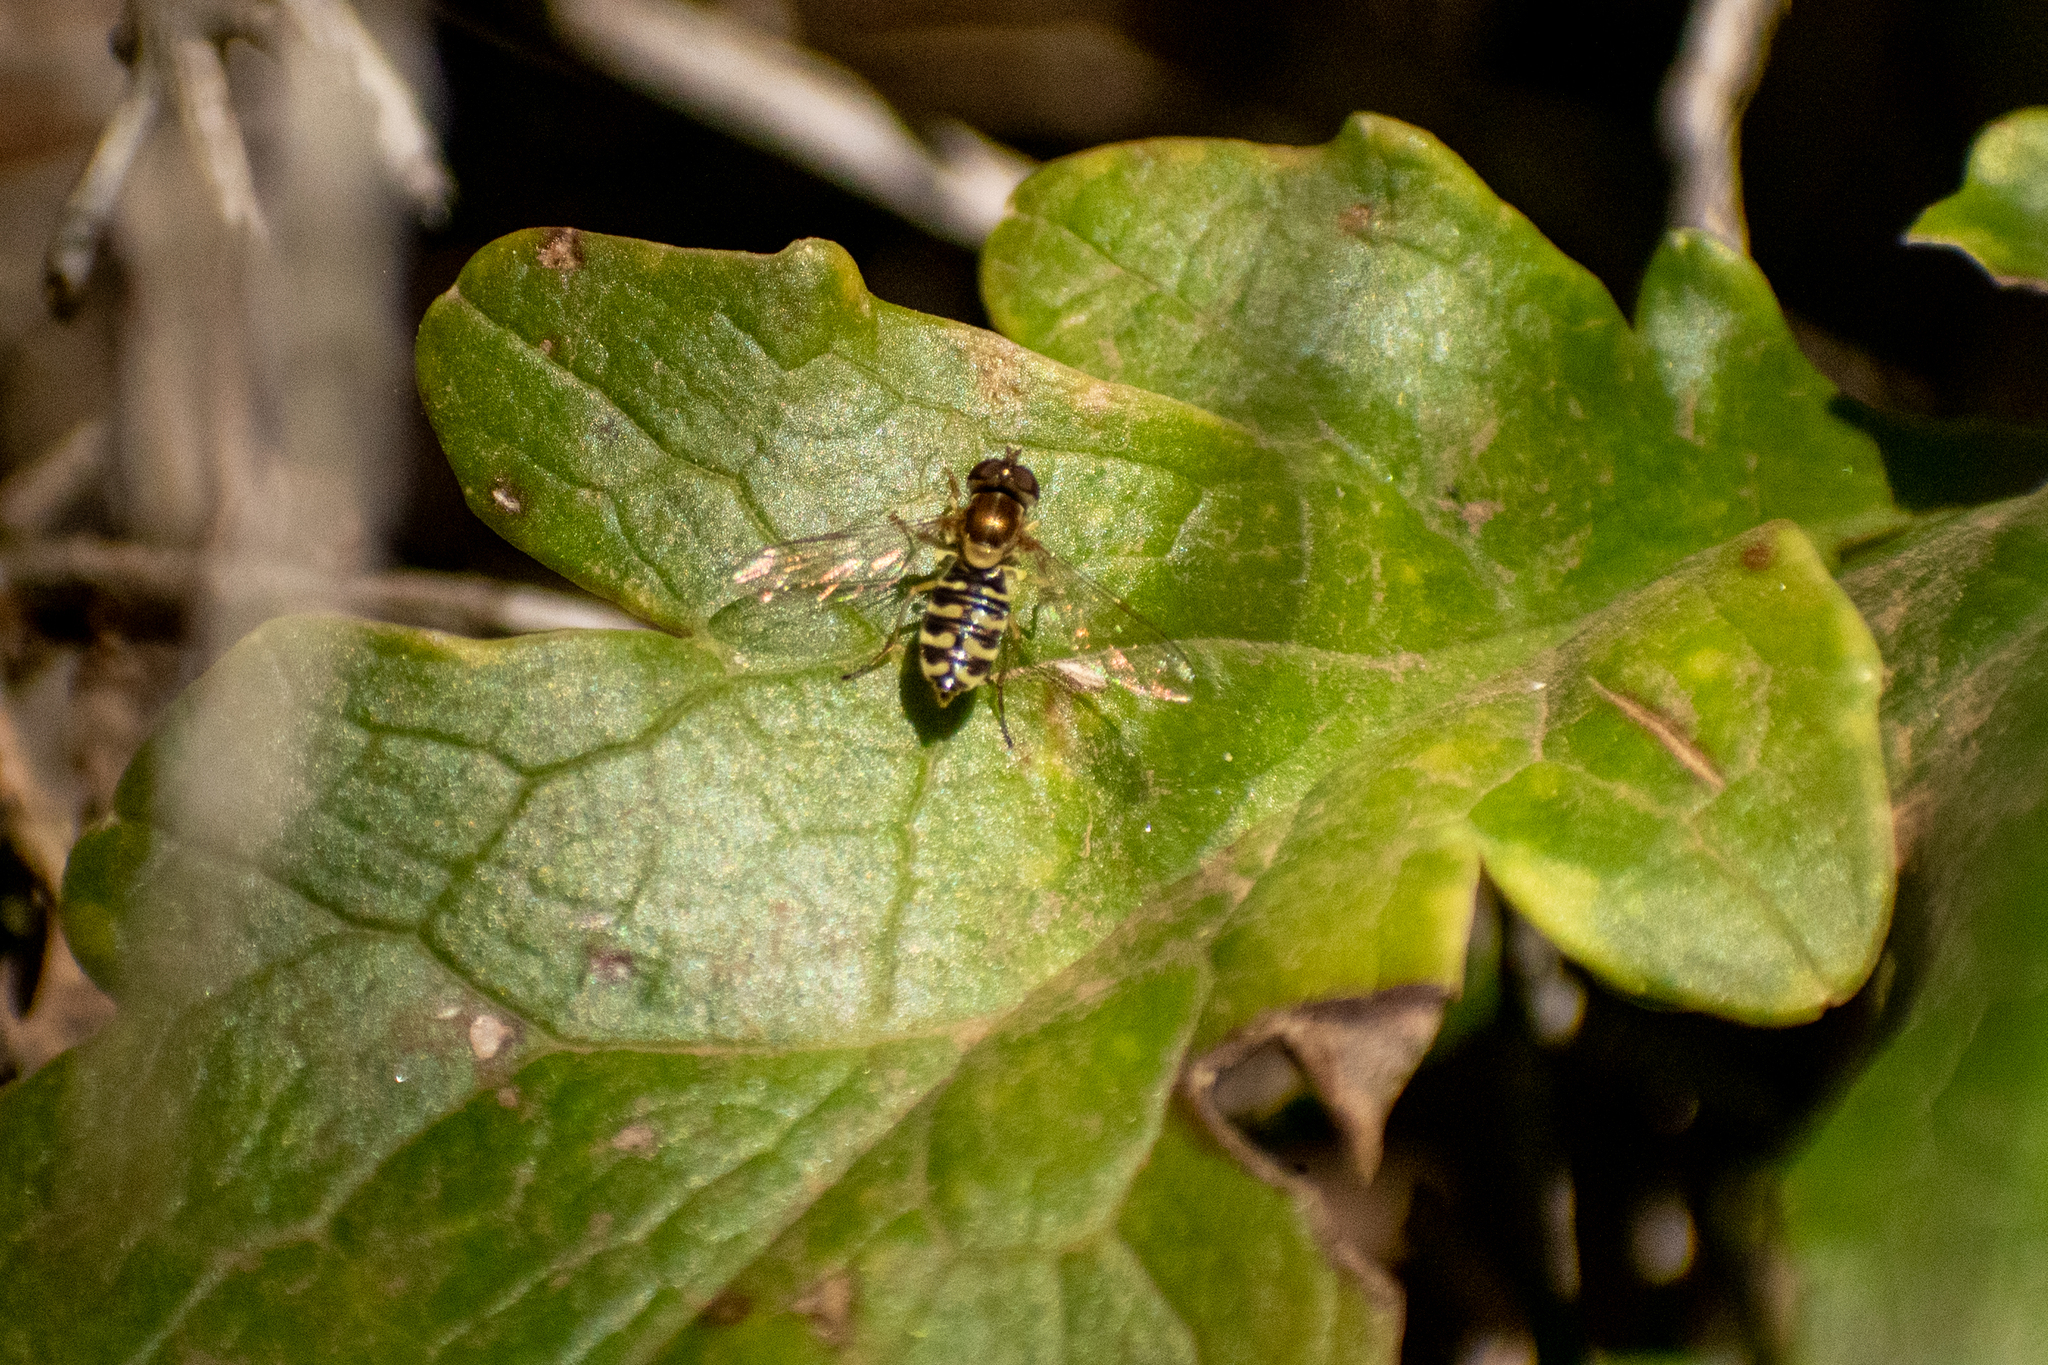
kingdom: Animalia
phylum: Arthropoda
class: Insecta
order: Diptera
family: Syrphidae
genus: Toxomerus
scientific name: Toxomerus vertebratus
